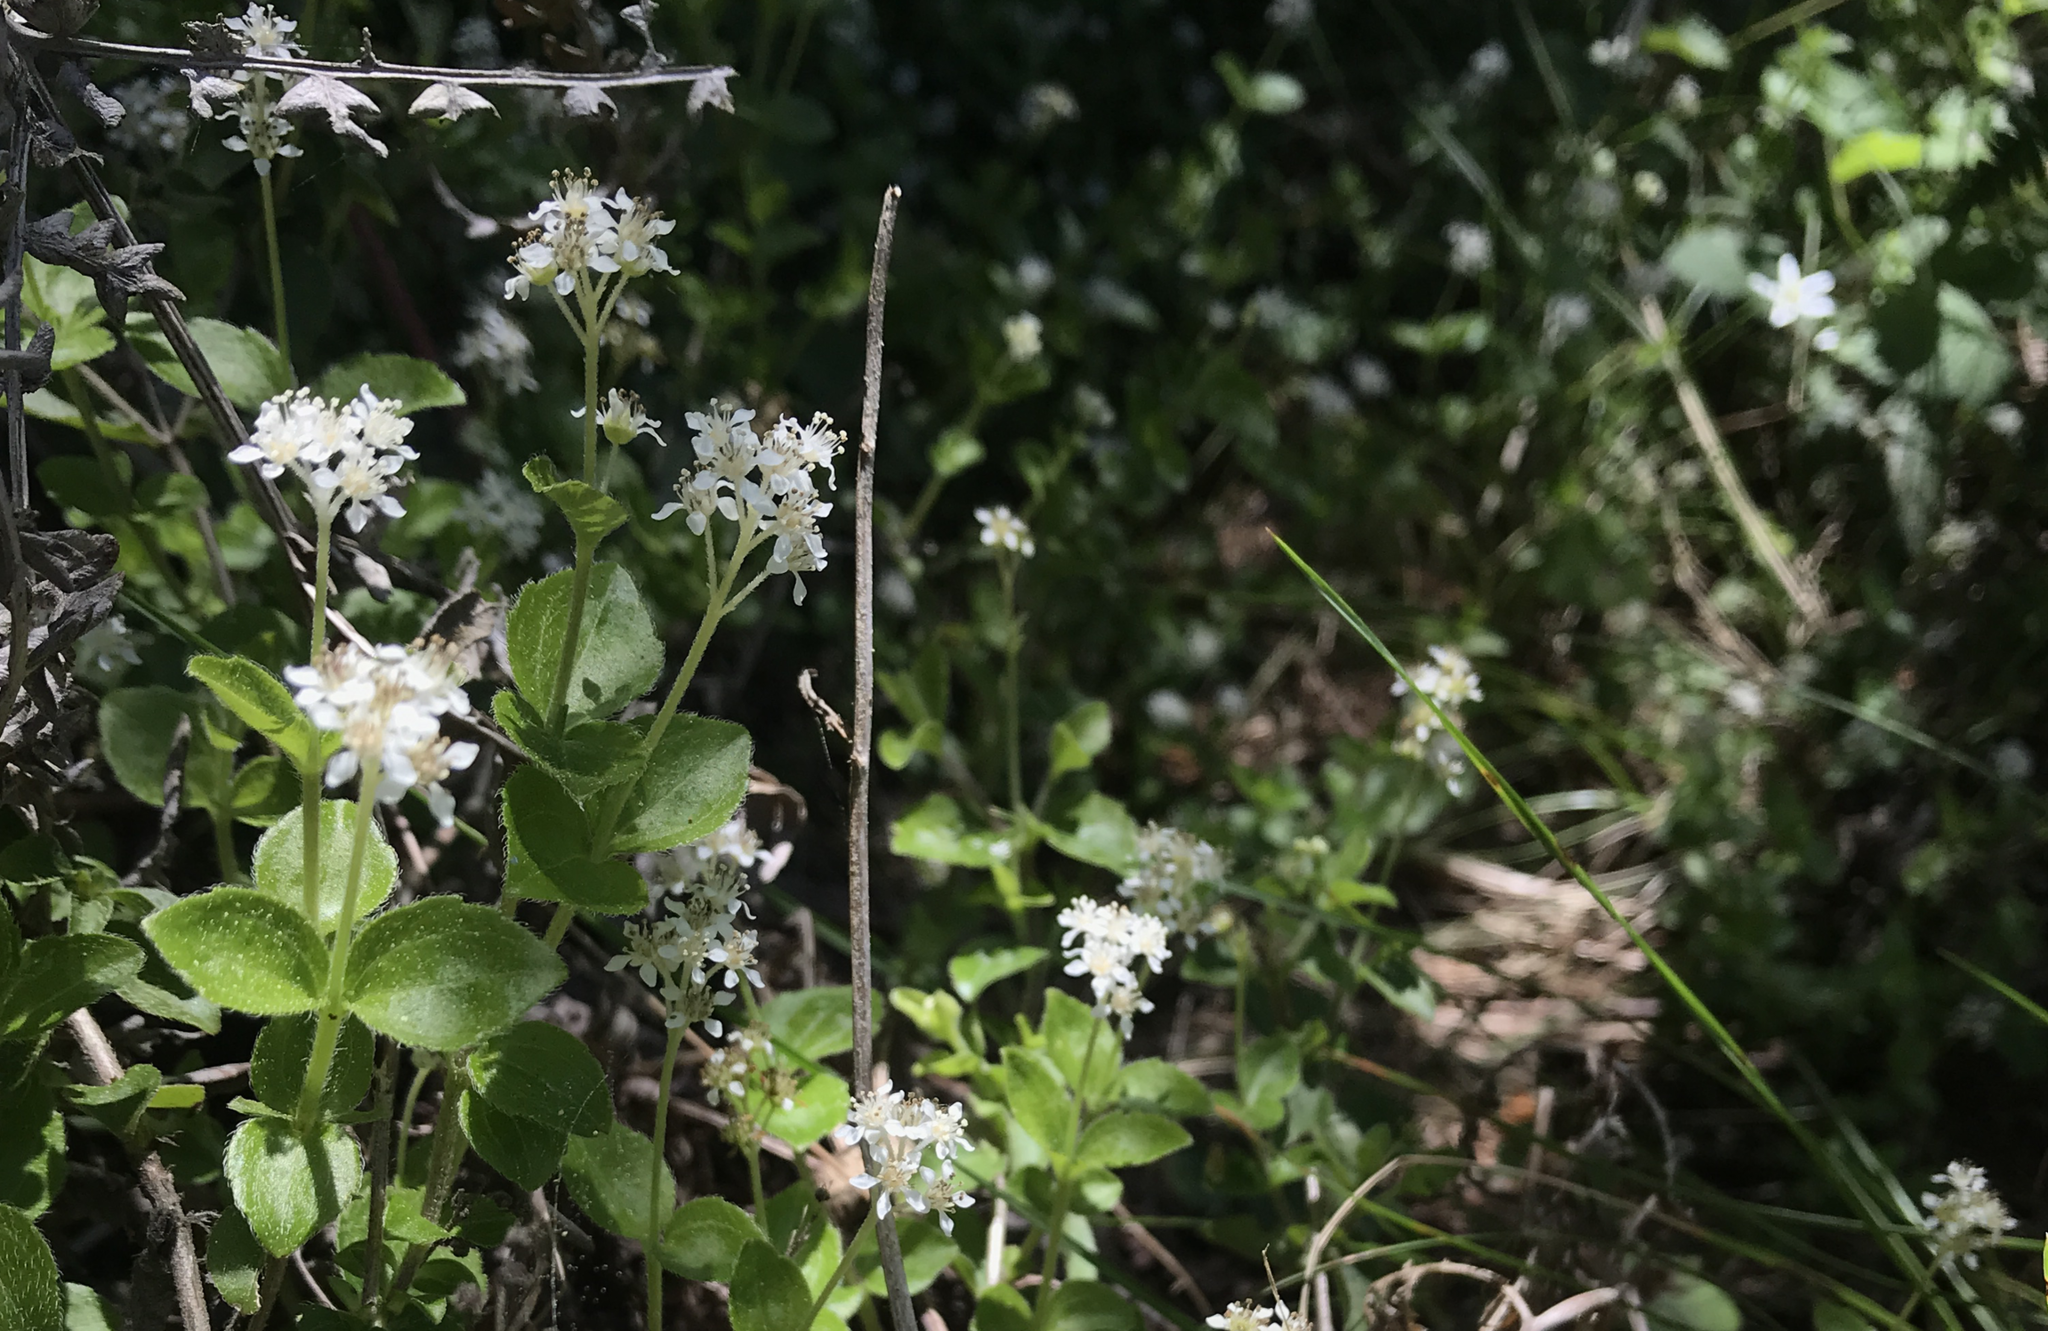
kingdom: Plantae
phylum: Tracheophyta
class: Magnoliopsida
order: Cornales
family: Hydrangeaceae
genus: Whipplea
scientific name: Whipplea modesta
